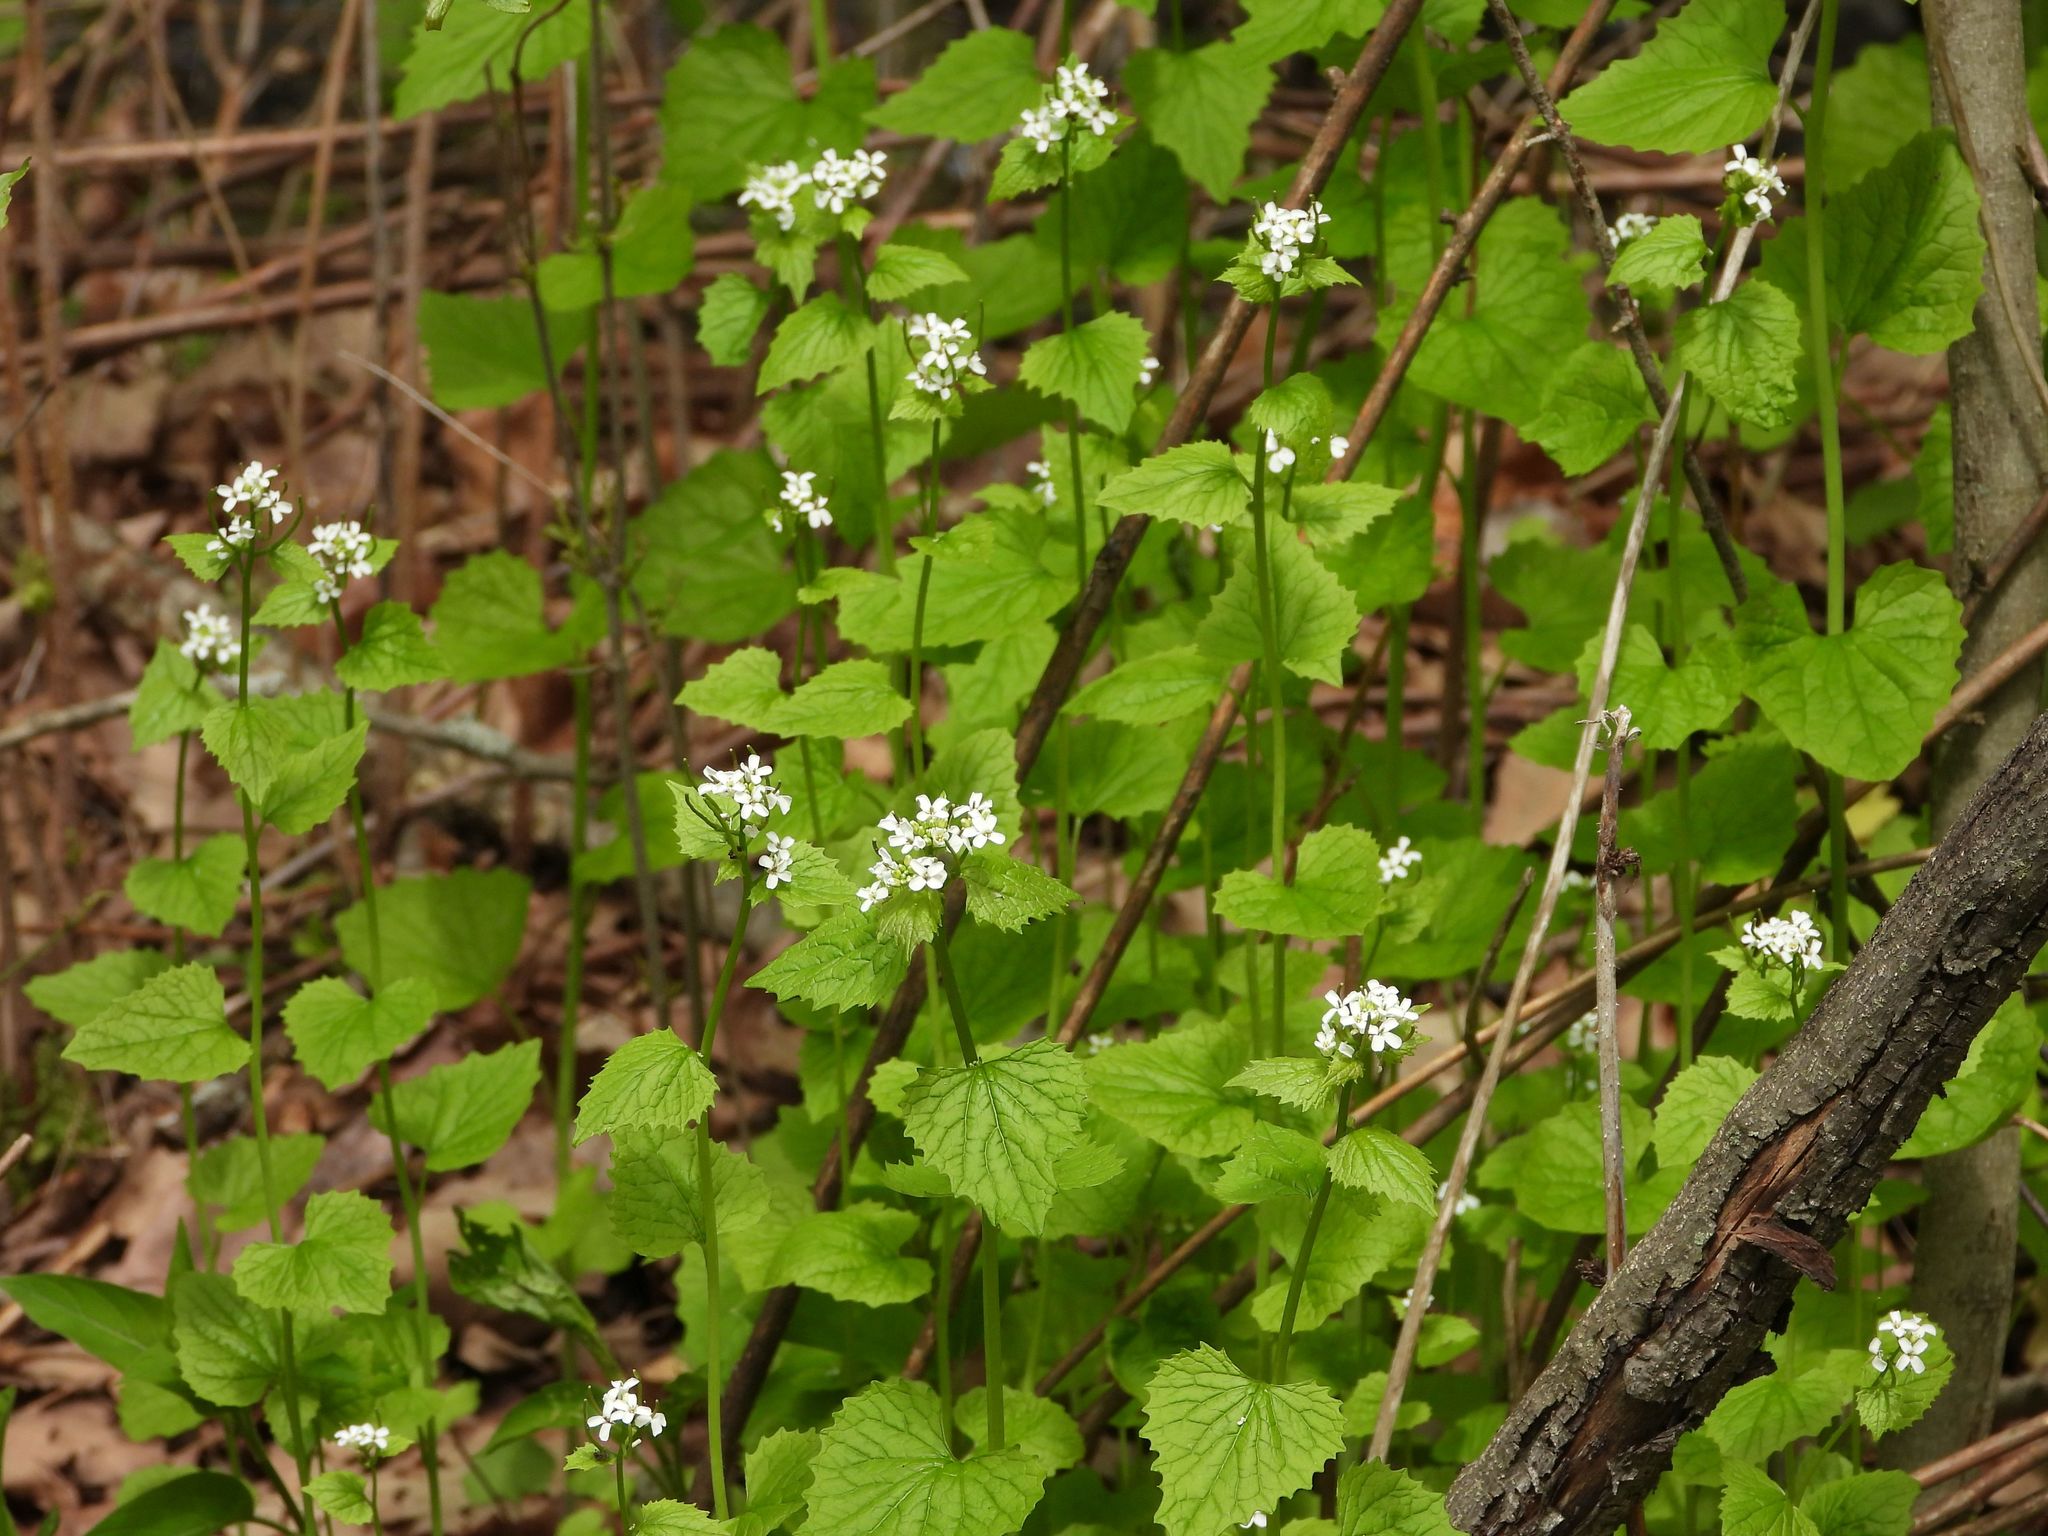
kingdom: Plantae
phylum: Tracheophyta
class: Magnoliopsida
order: Brassicales
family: Brassicaceae
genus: Alliaria
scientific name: Alliaria petiolata
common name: Garlic mustard
